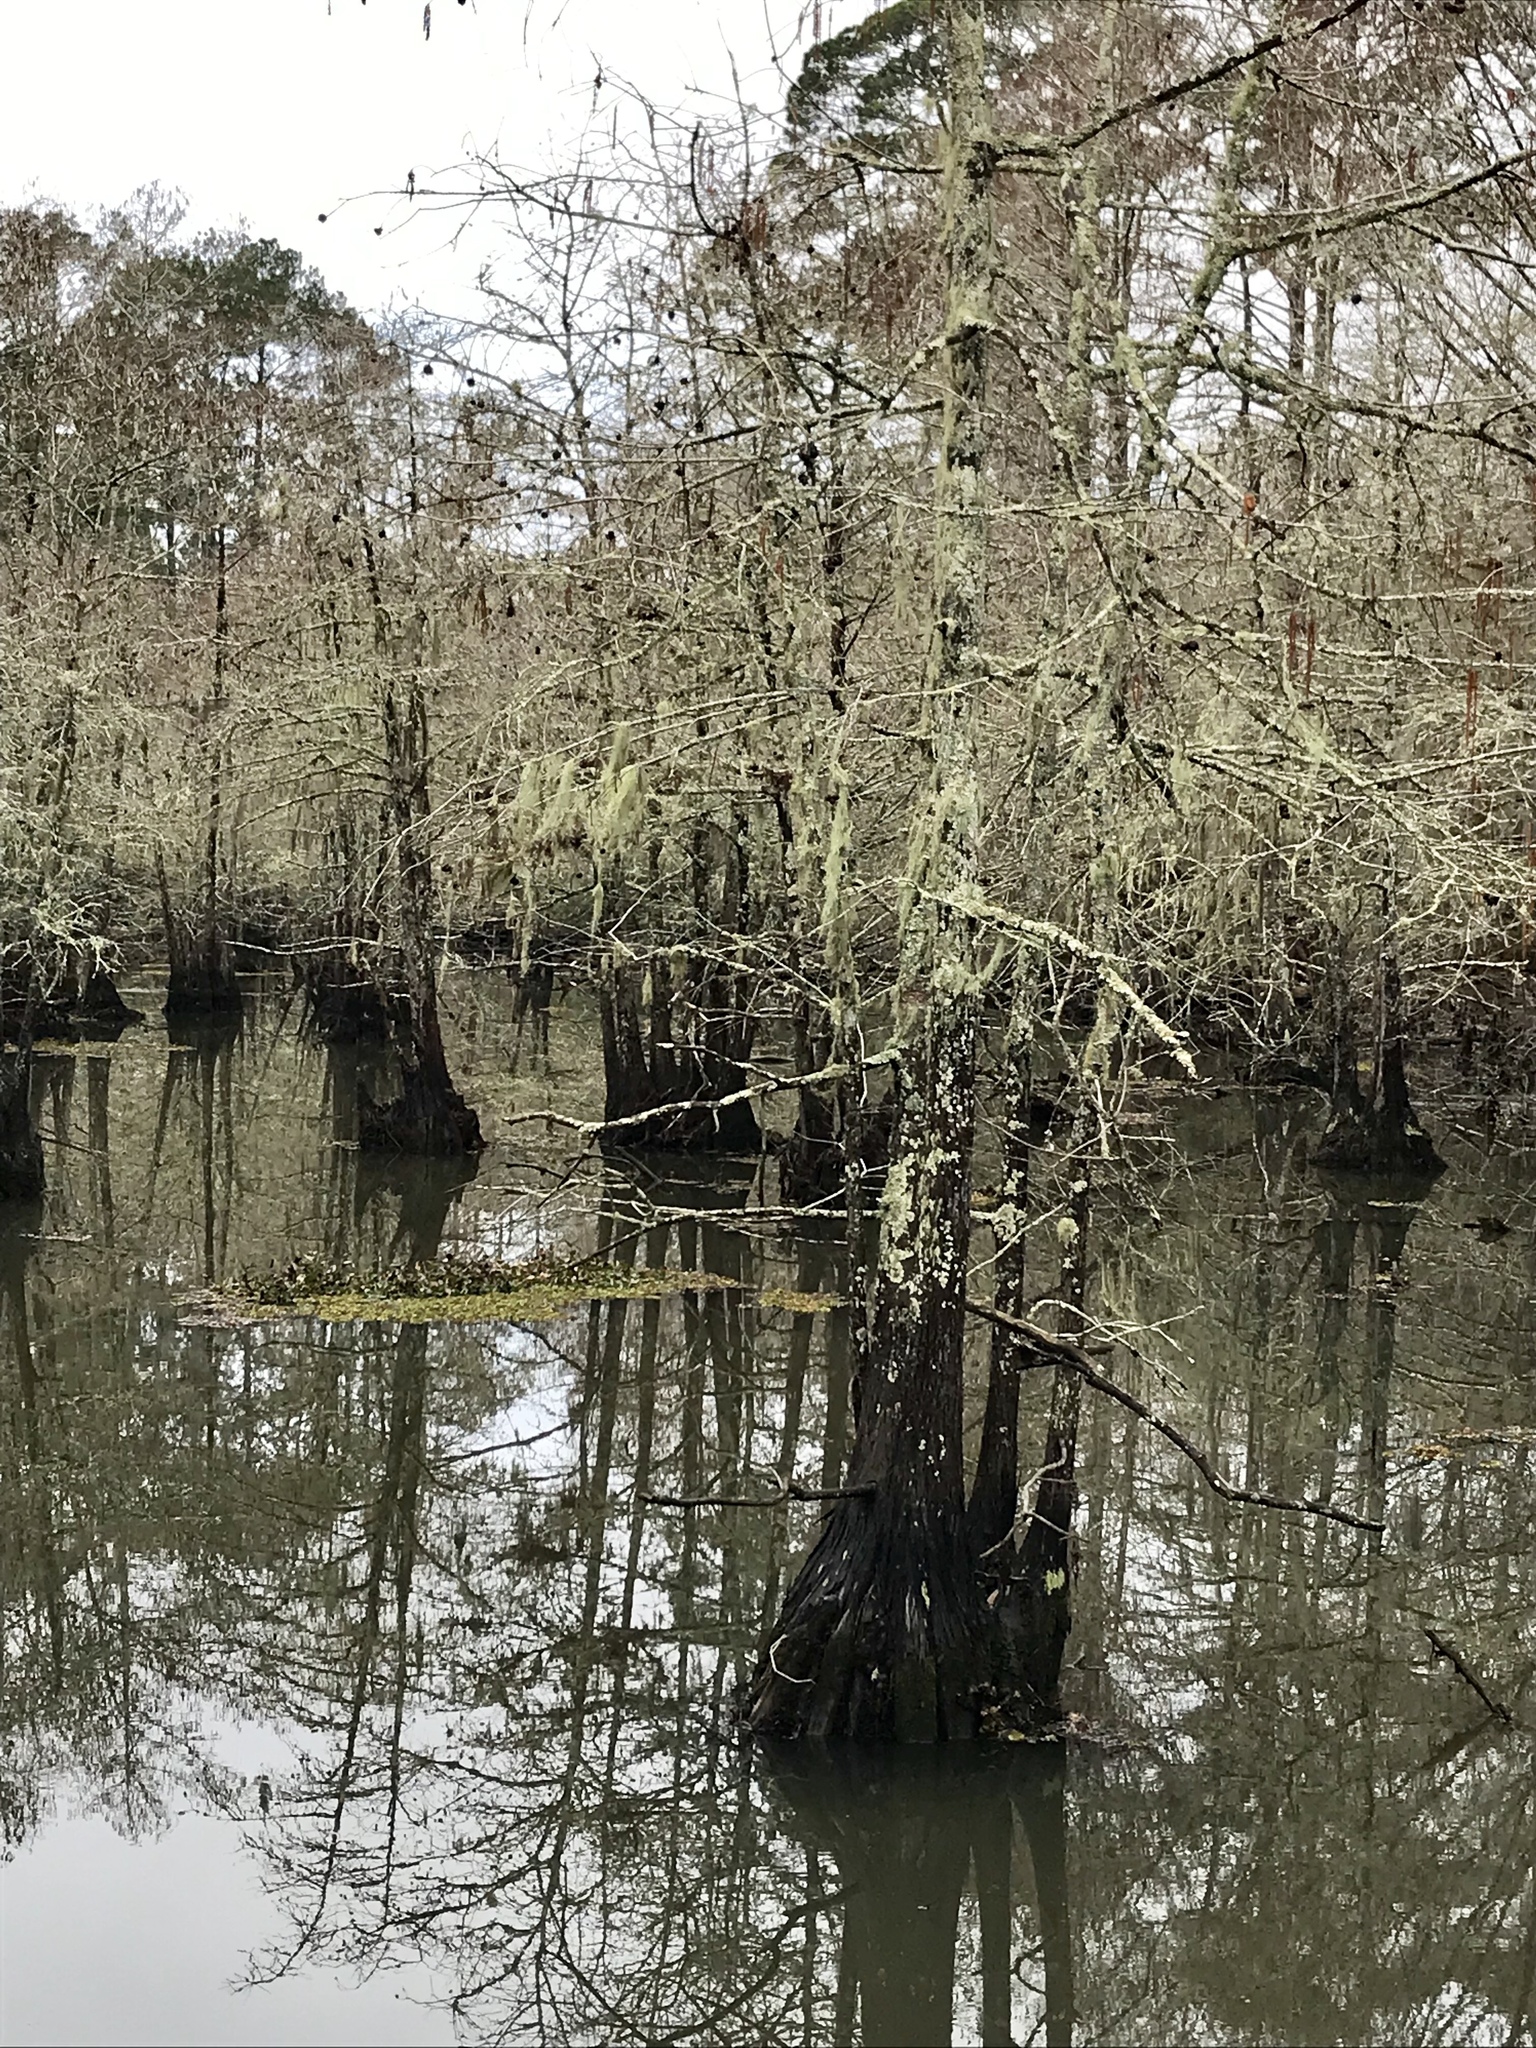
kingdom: Plantae
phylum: Tracheophyta
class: Pinopsida
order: Pinales
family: Cupressaceae
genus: Taxodium
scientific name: Taxodium distichum
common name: Bald cypress
